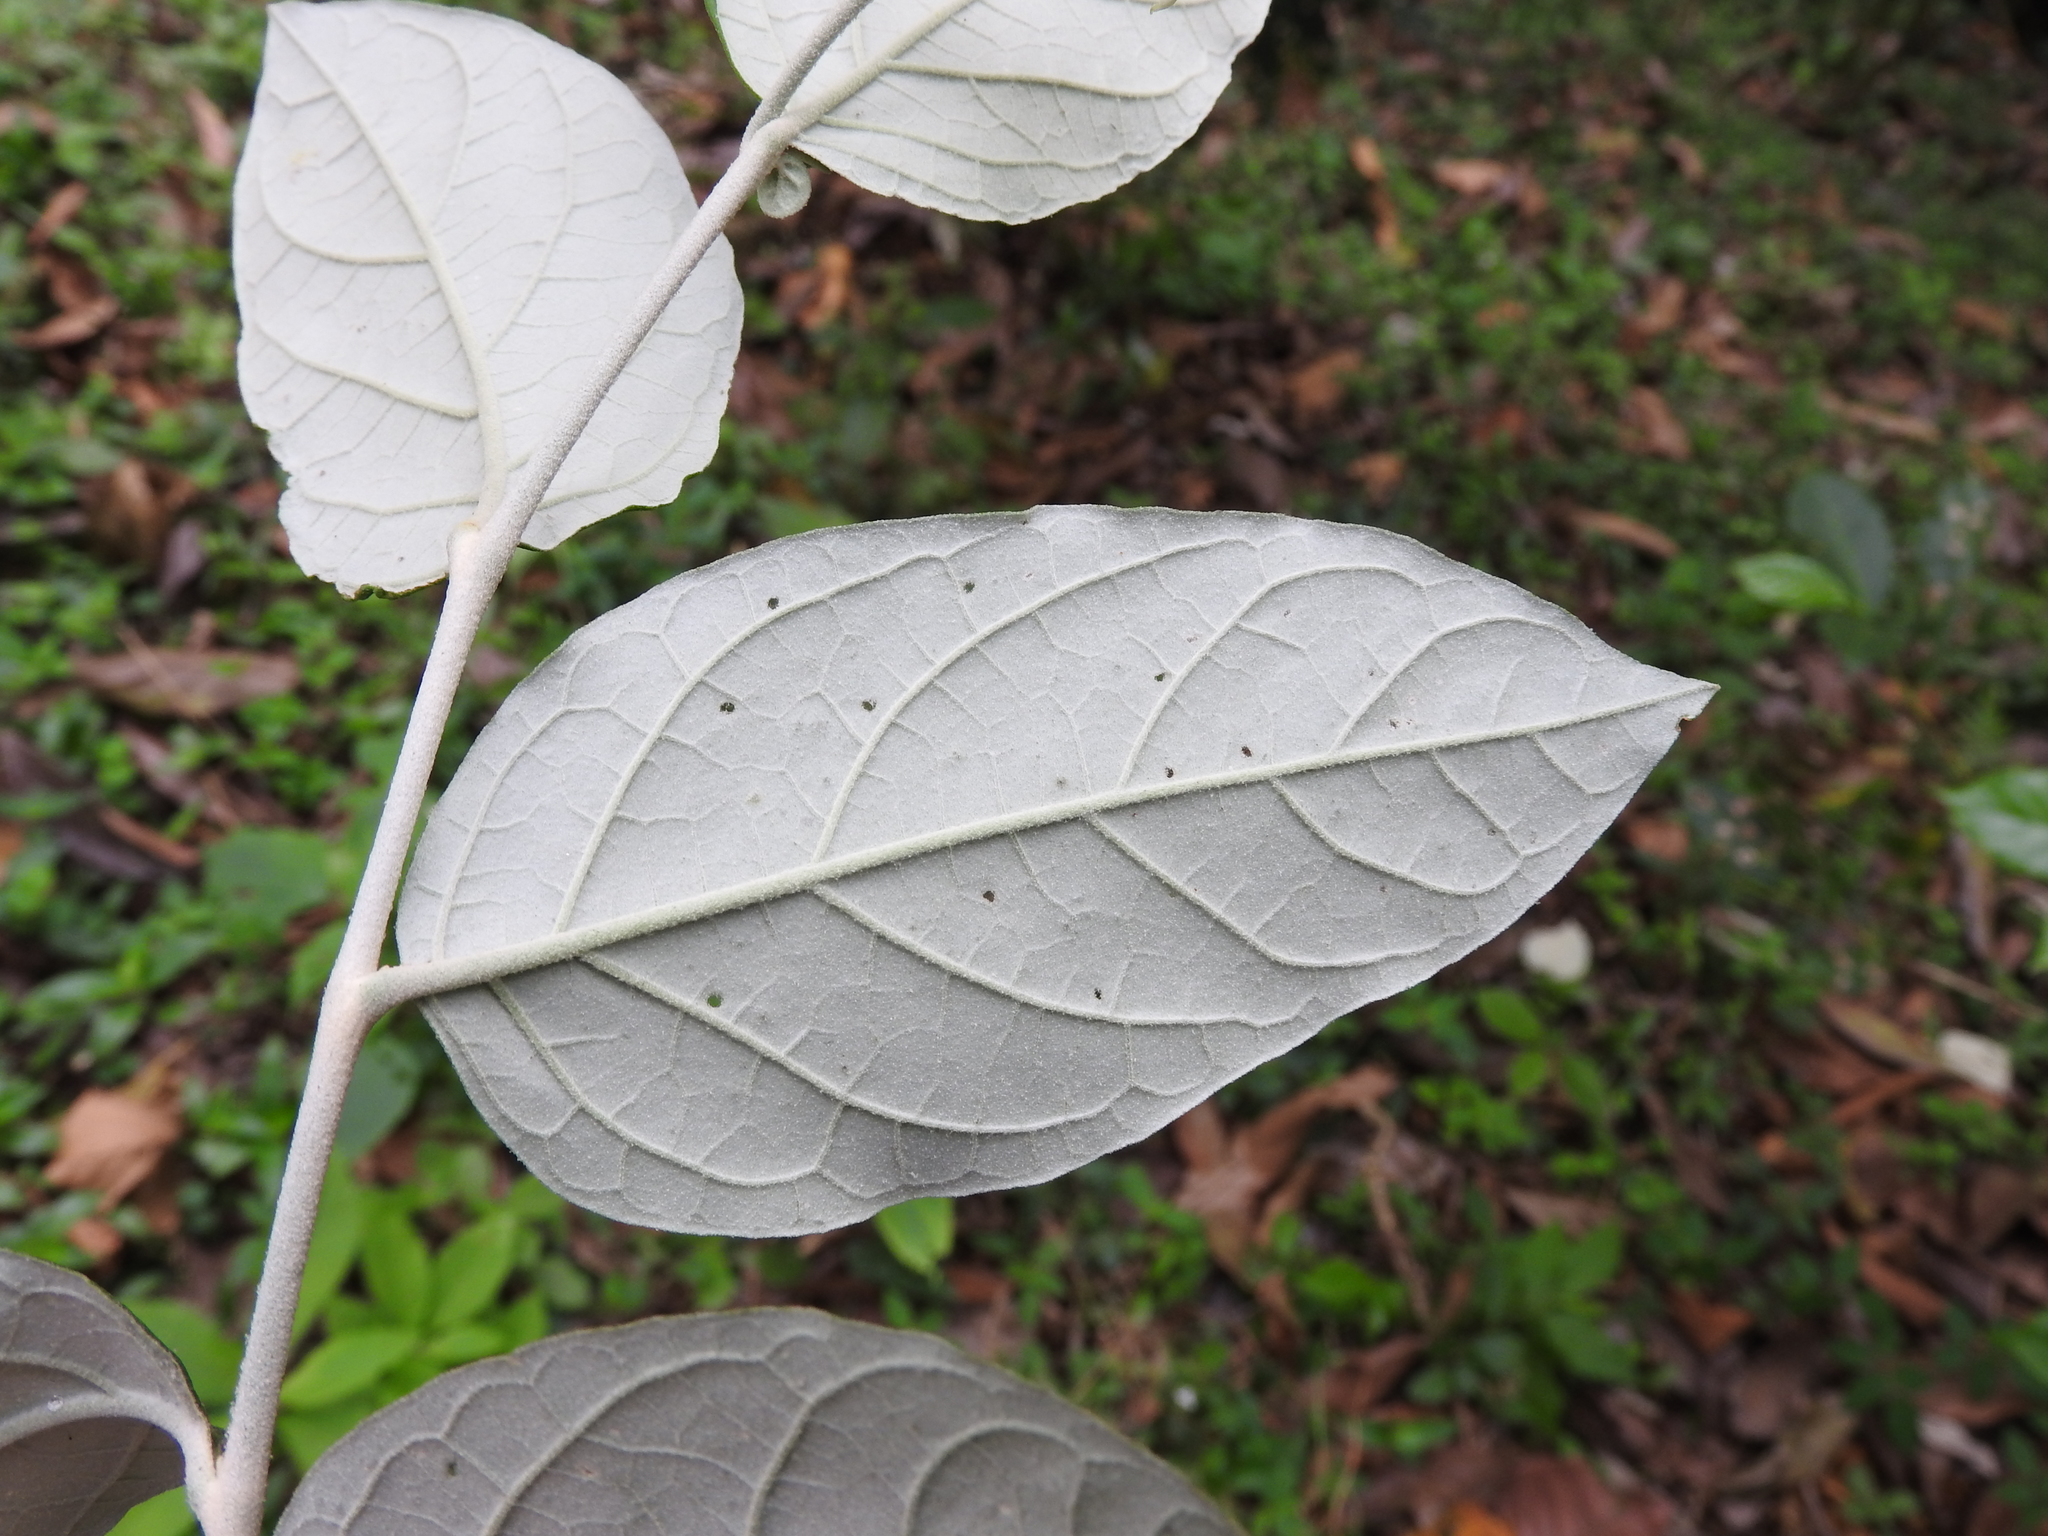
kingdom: Plantae
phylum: Tracheophyta
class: Magnoliopsida
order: Solanales
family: Solanaceae
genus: Solanum
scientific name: Solanum schlechtendalianum
